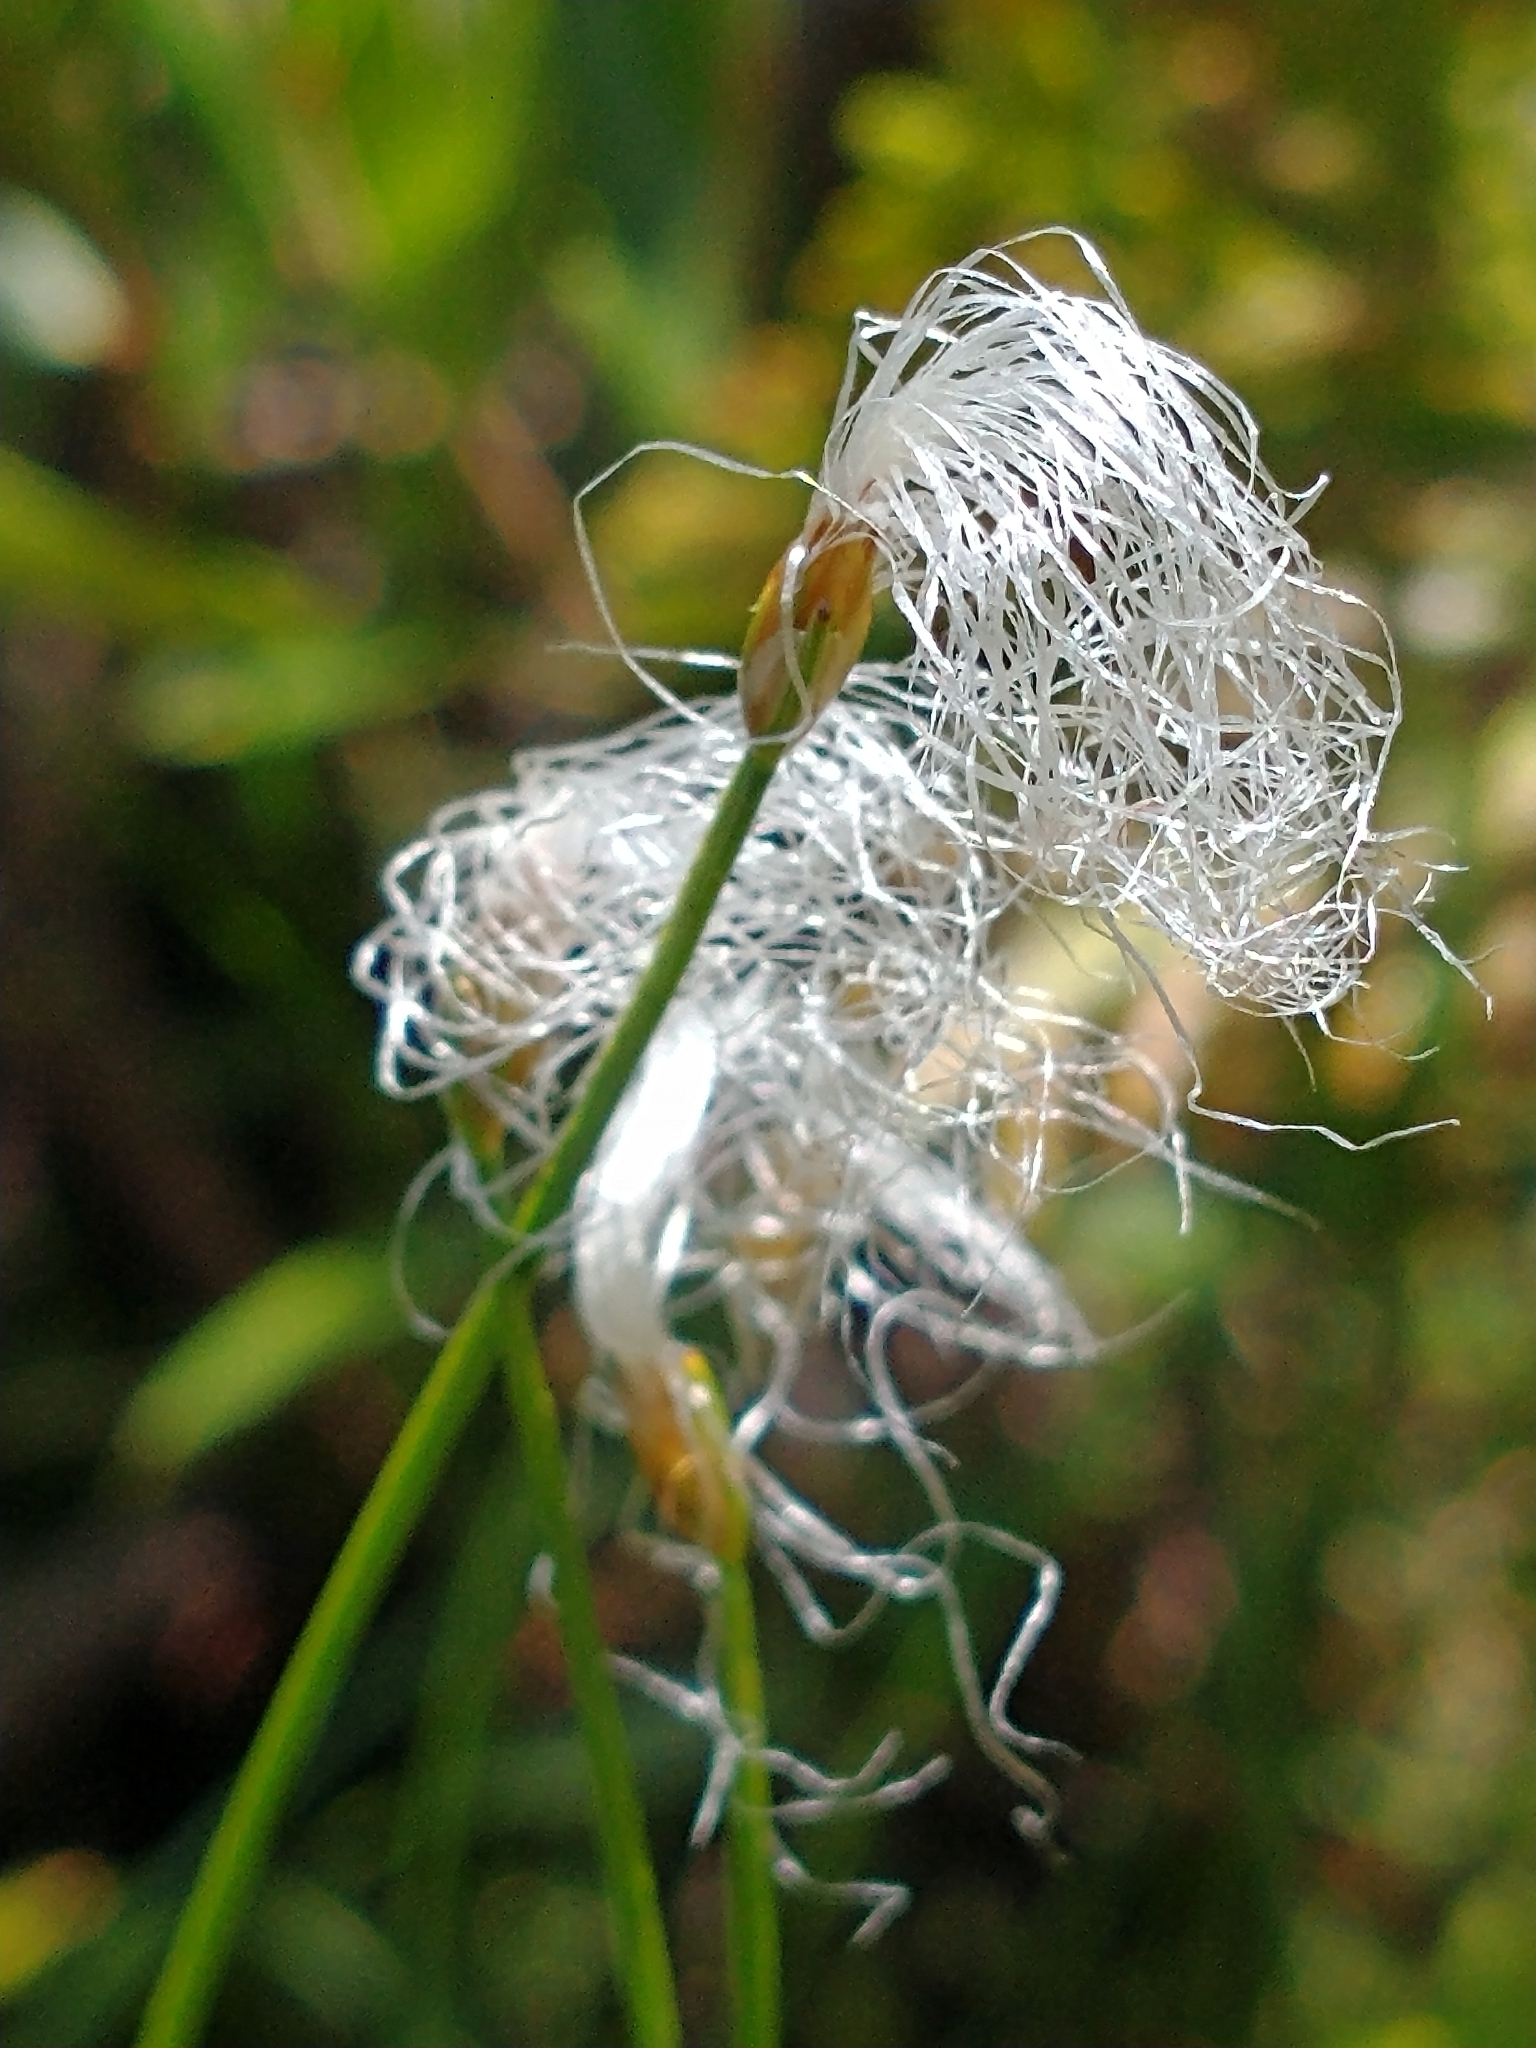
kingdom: Plantae
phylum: Tracheophyta
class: Liliopsida
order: Poales
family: Cyperaceae
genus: Trichophorum
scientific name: Trichophorum alpinum
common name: Alpine bulrush
